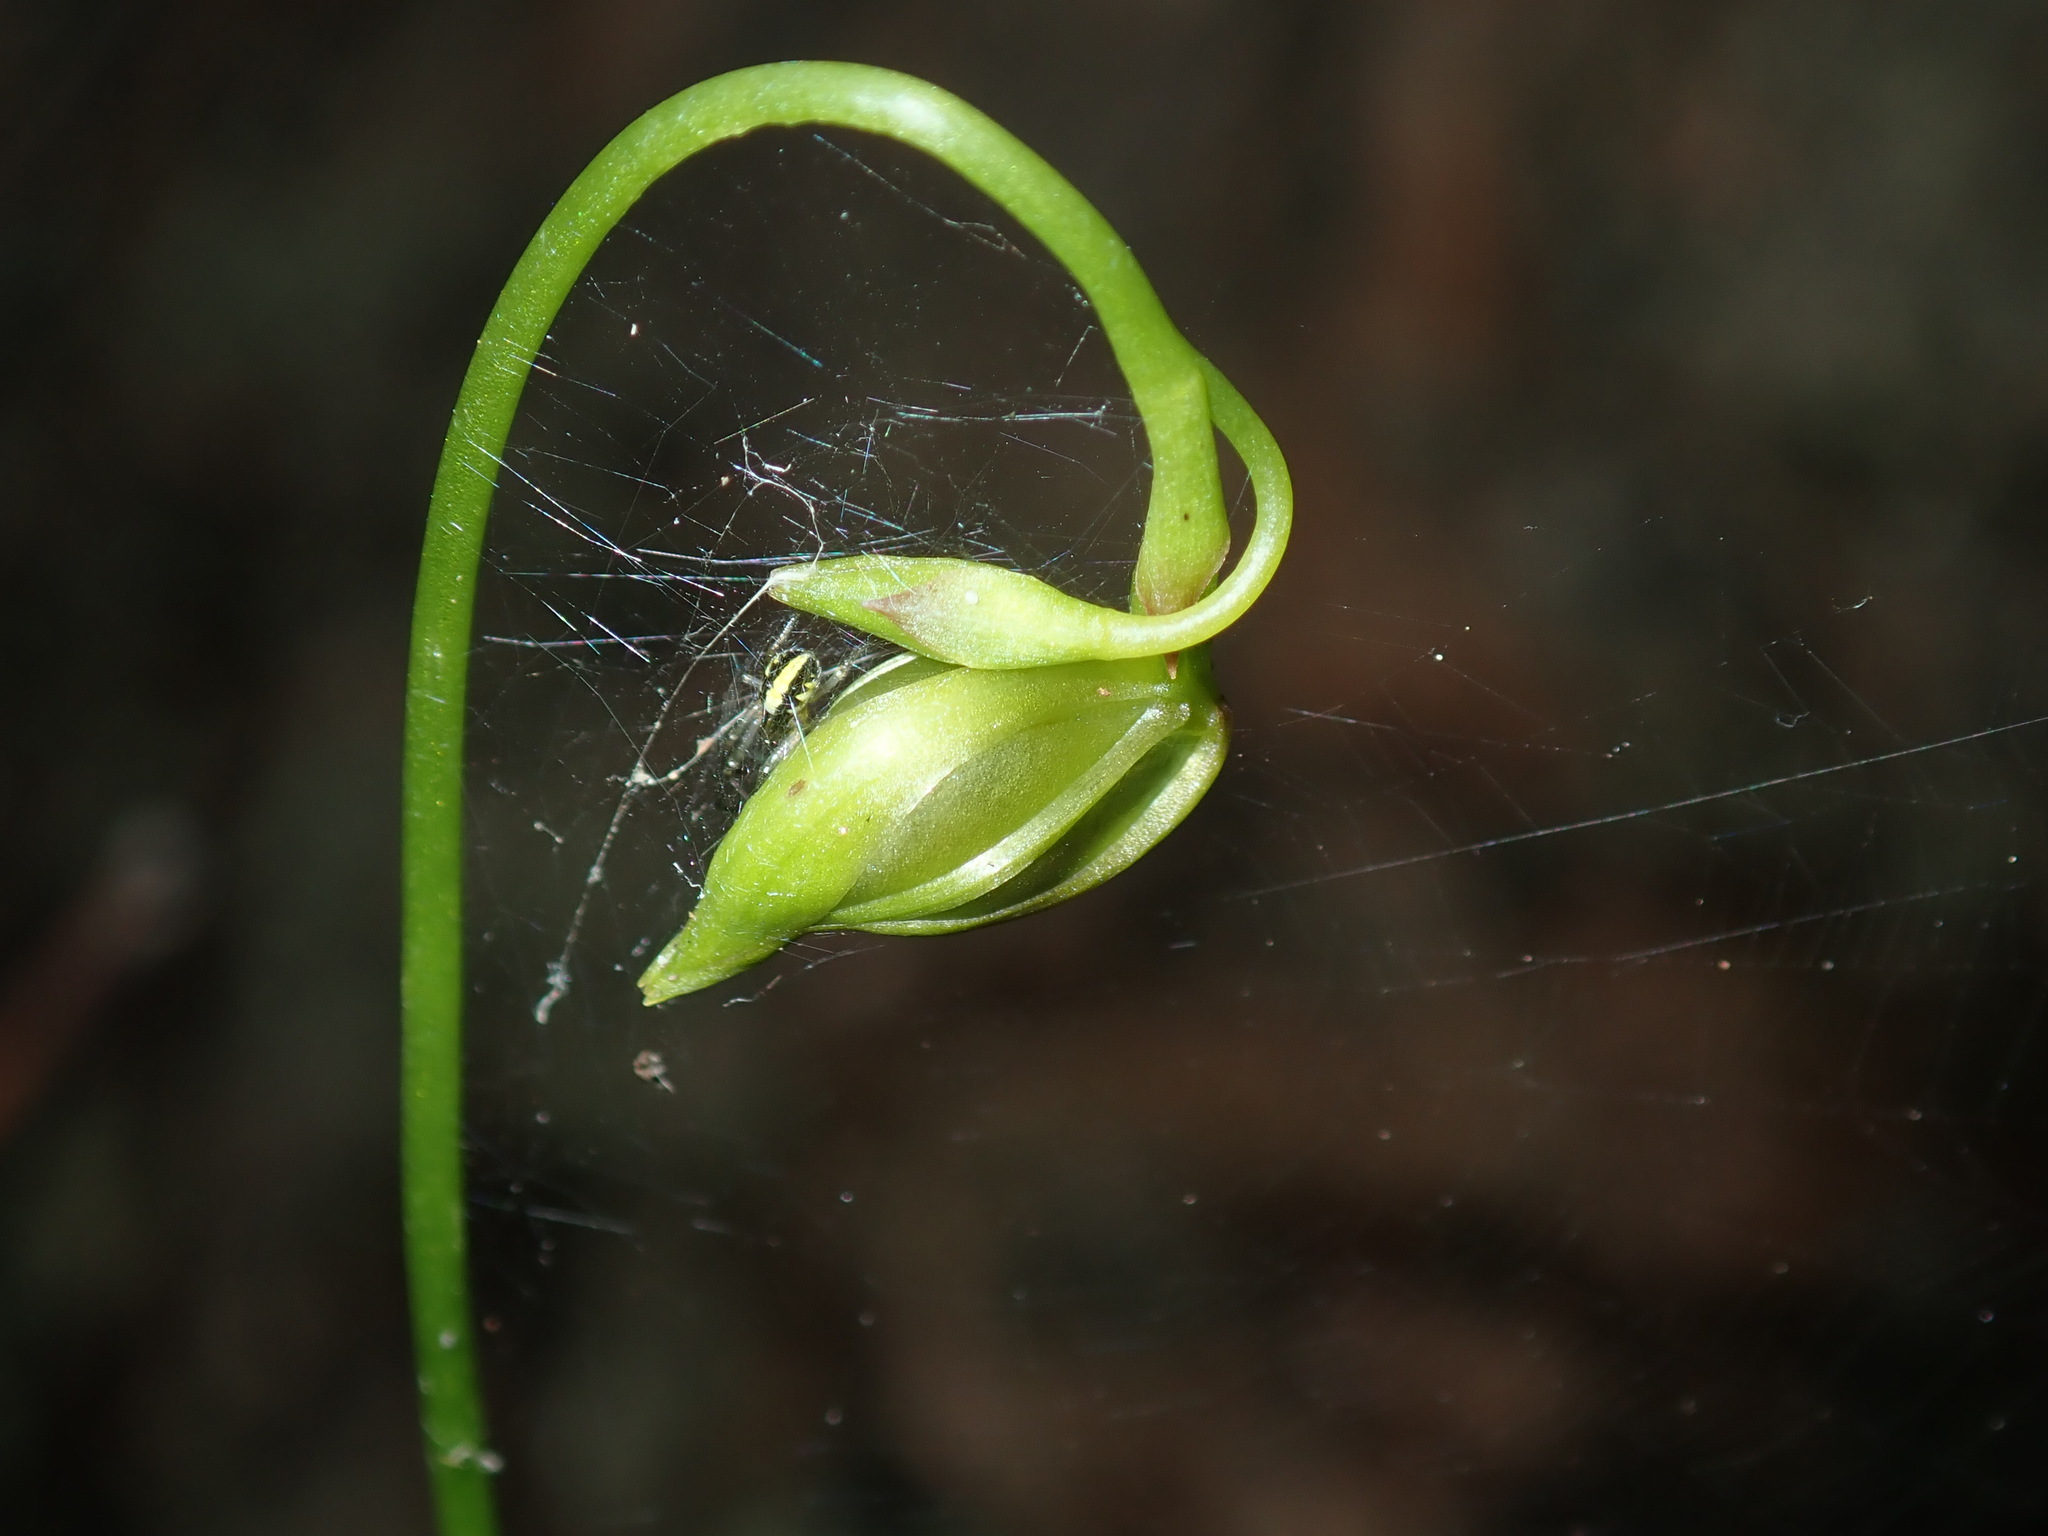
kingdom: Plantae
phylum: Tracheophyta
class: Liliopsida
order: Asparagales
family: Orchidaceae
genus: Caleana
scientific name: Caleana major
